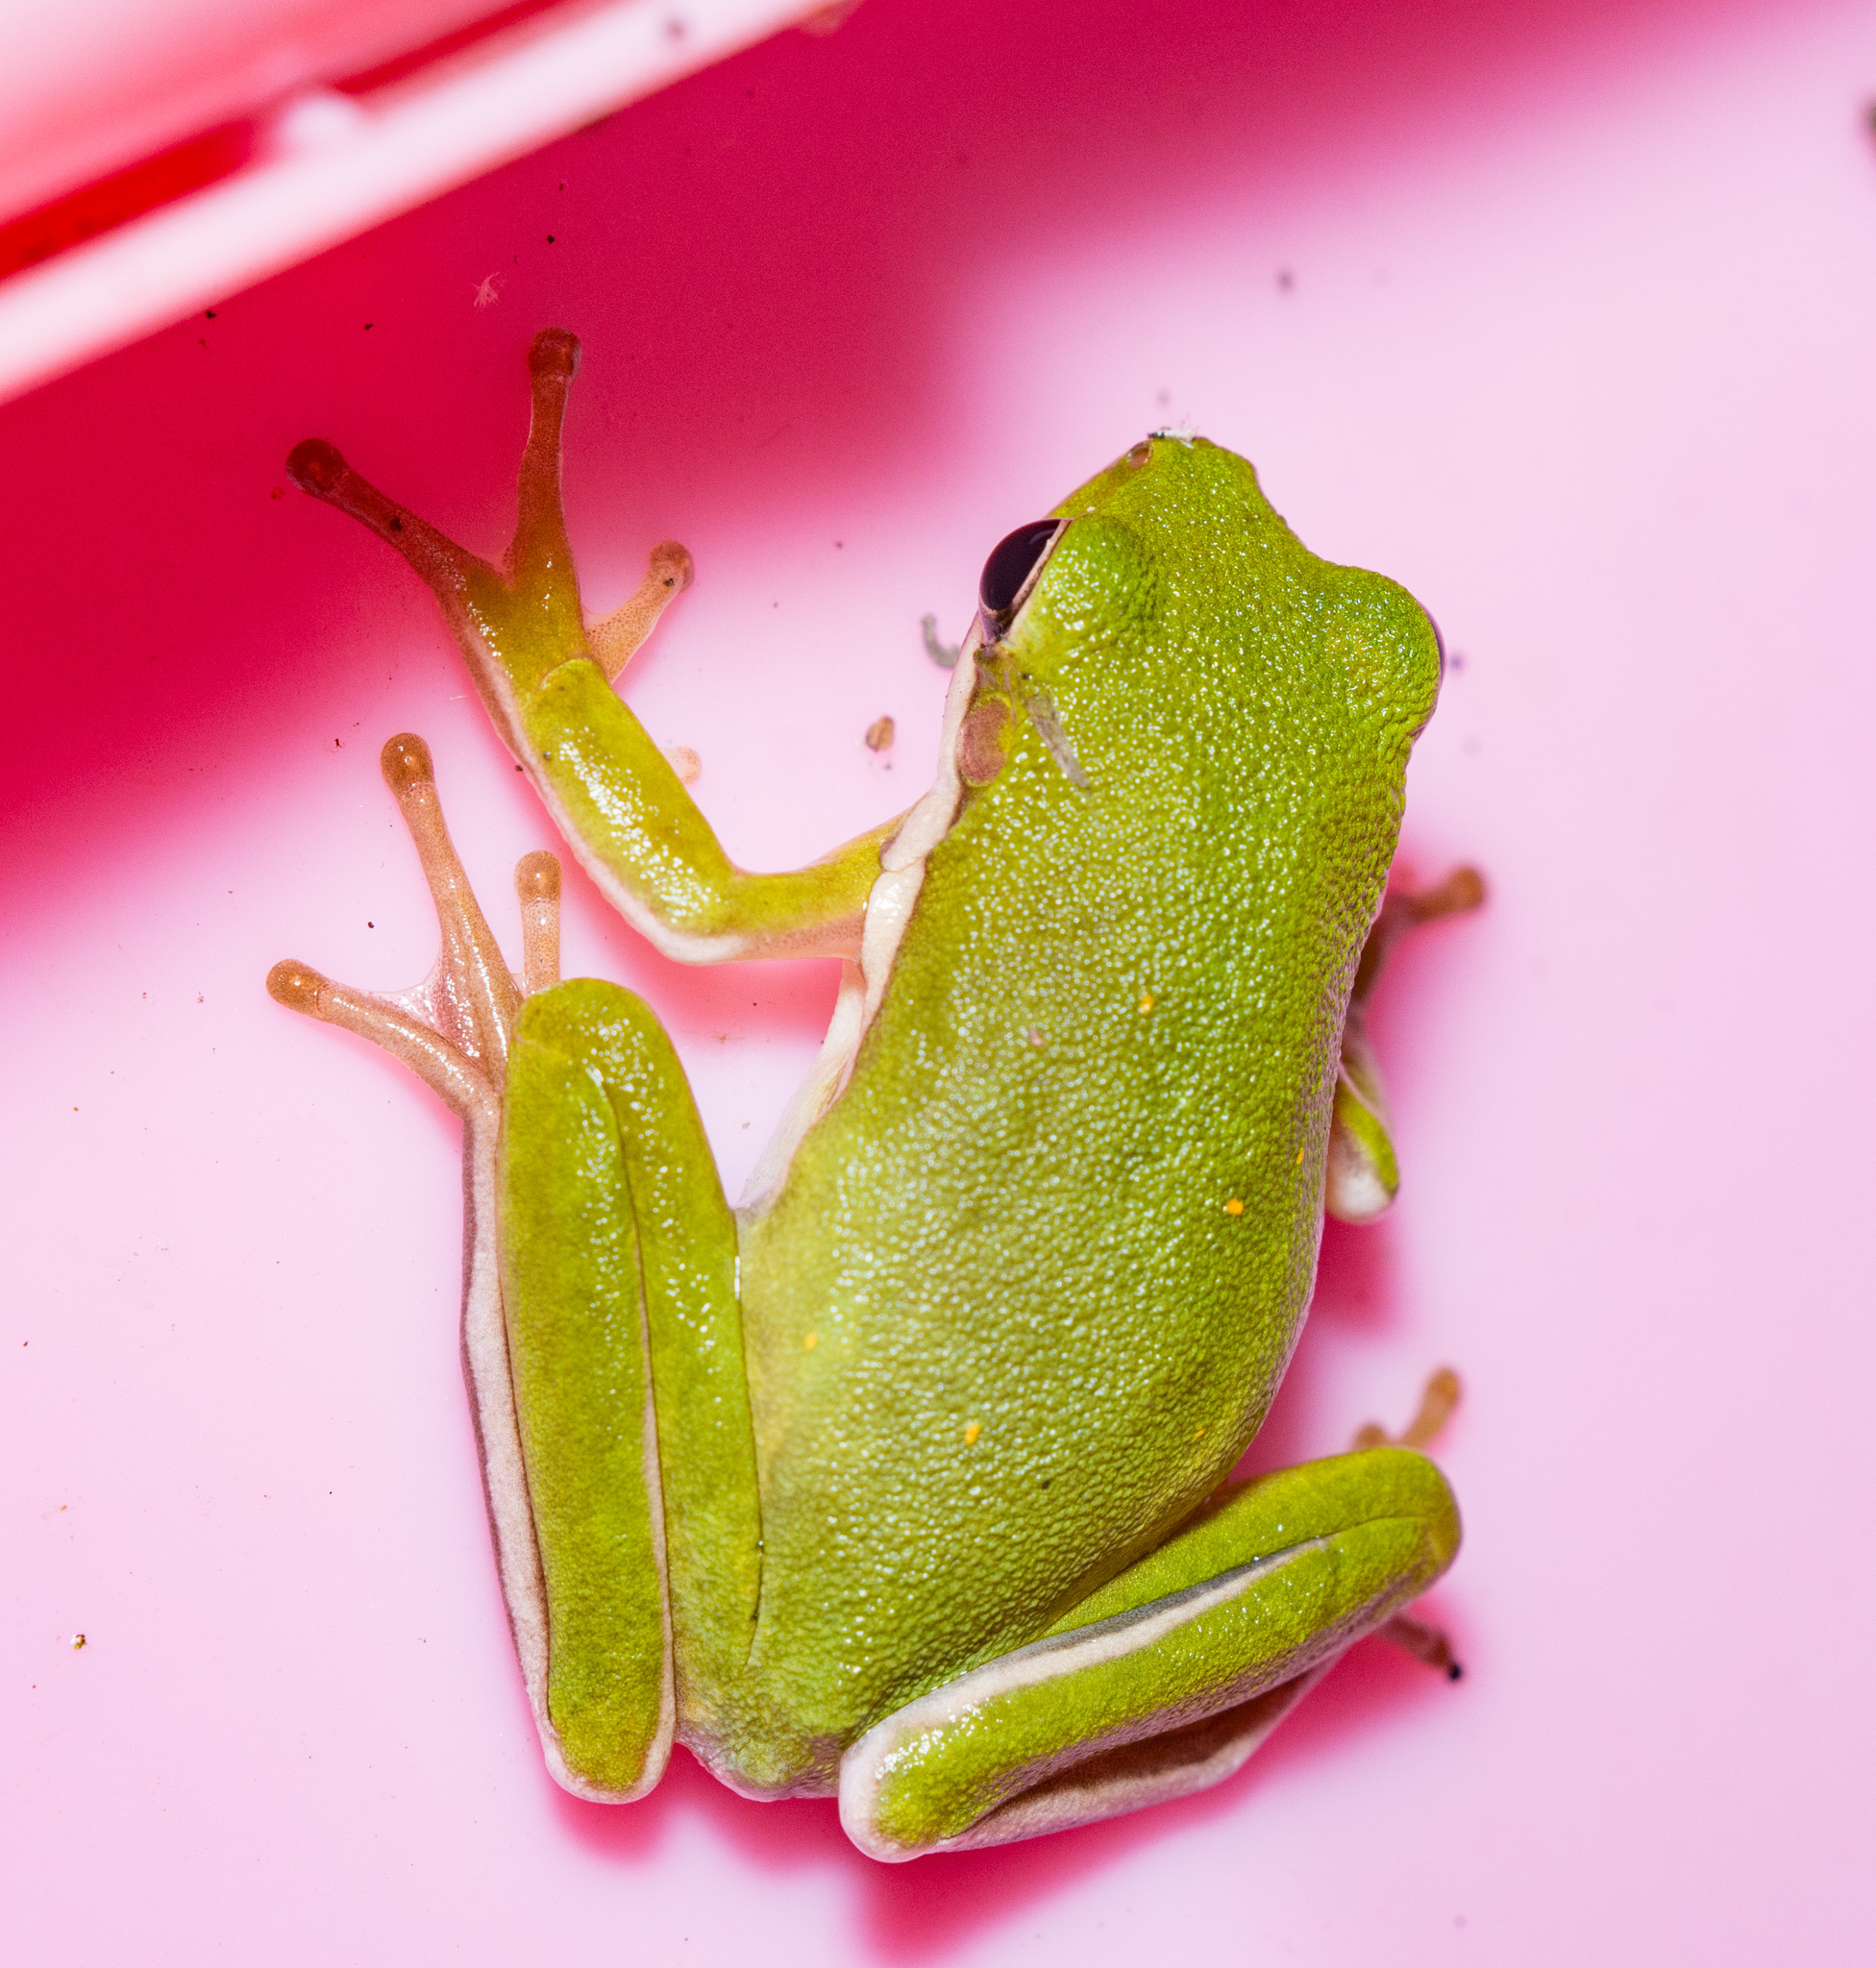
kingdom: Animalia
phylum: Chordata
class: Amphibia
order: Anura
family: Hylidae
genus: Dryophytes
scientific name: Dryophytes cinereus
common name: Green treefrog
